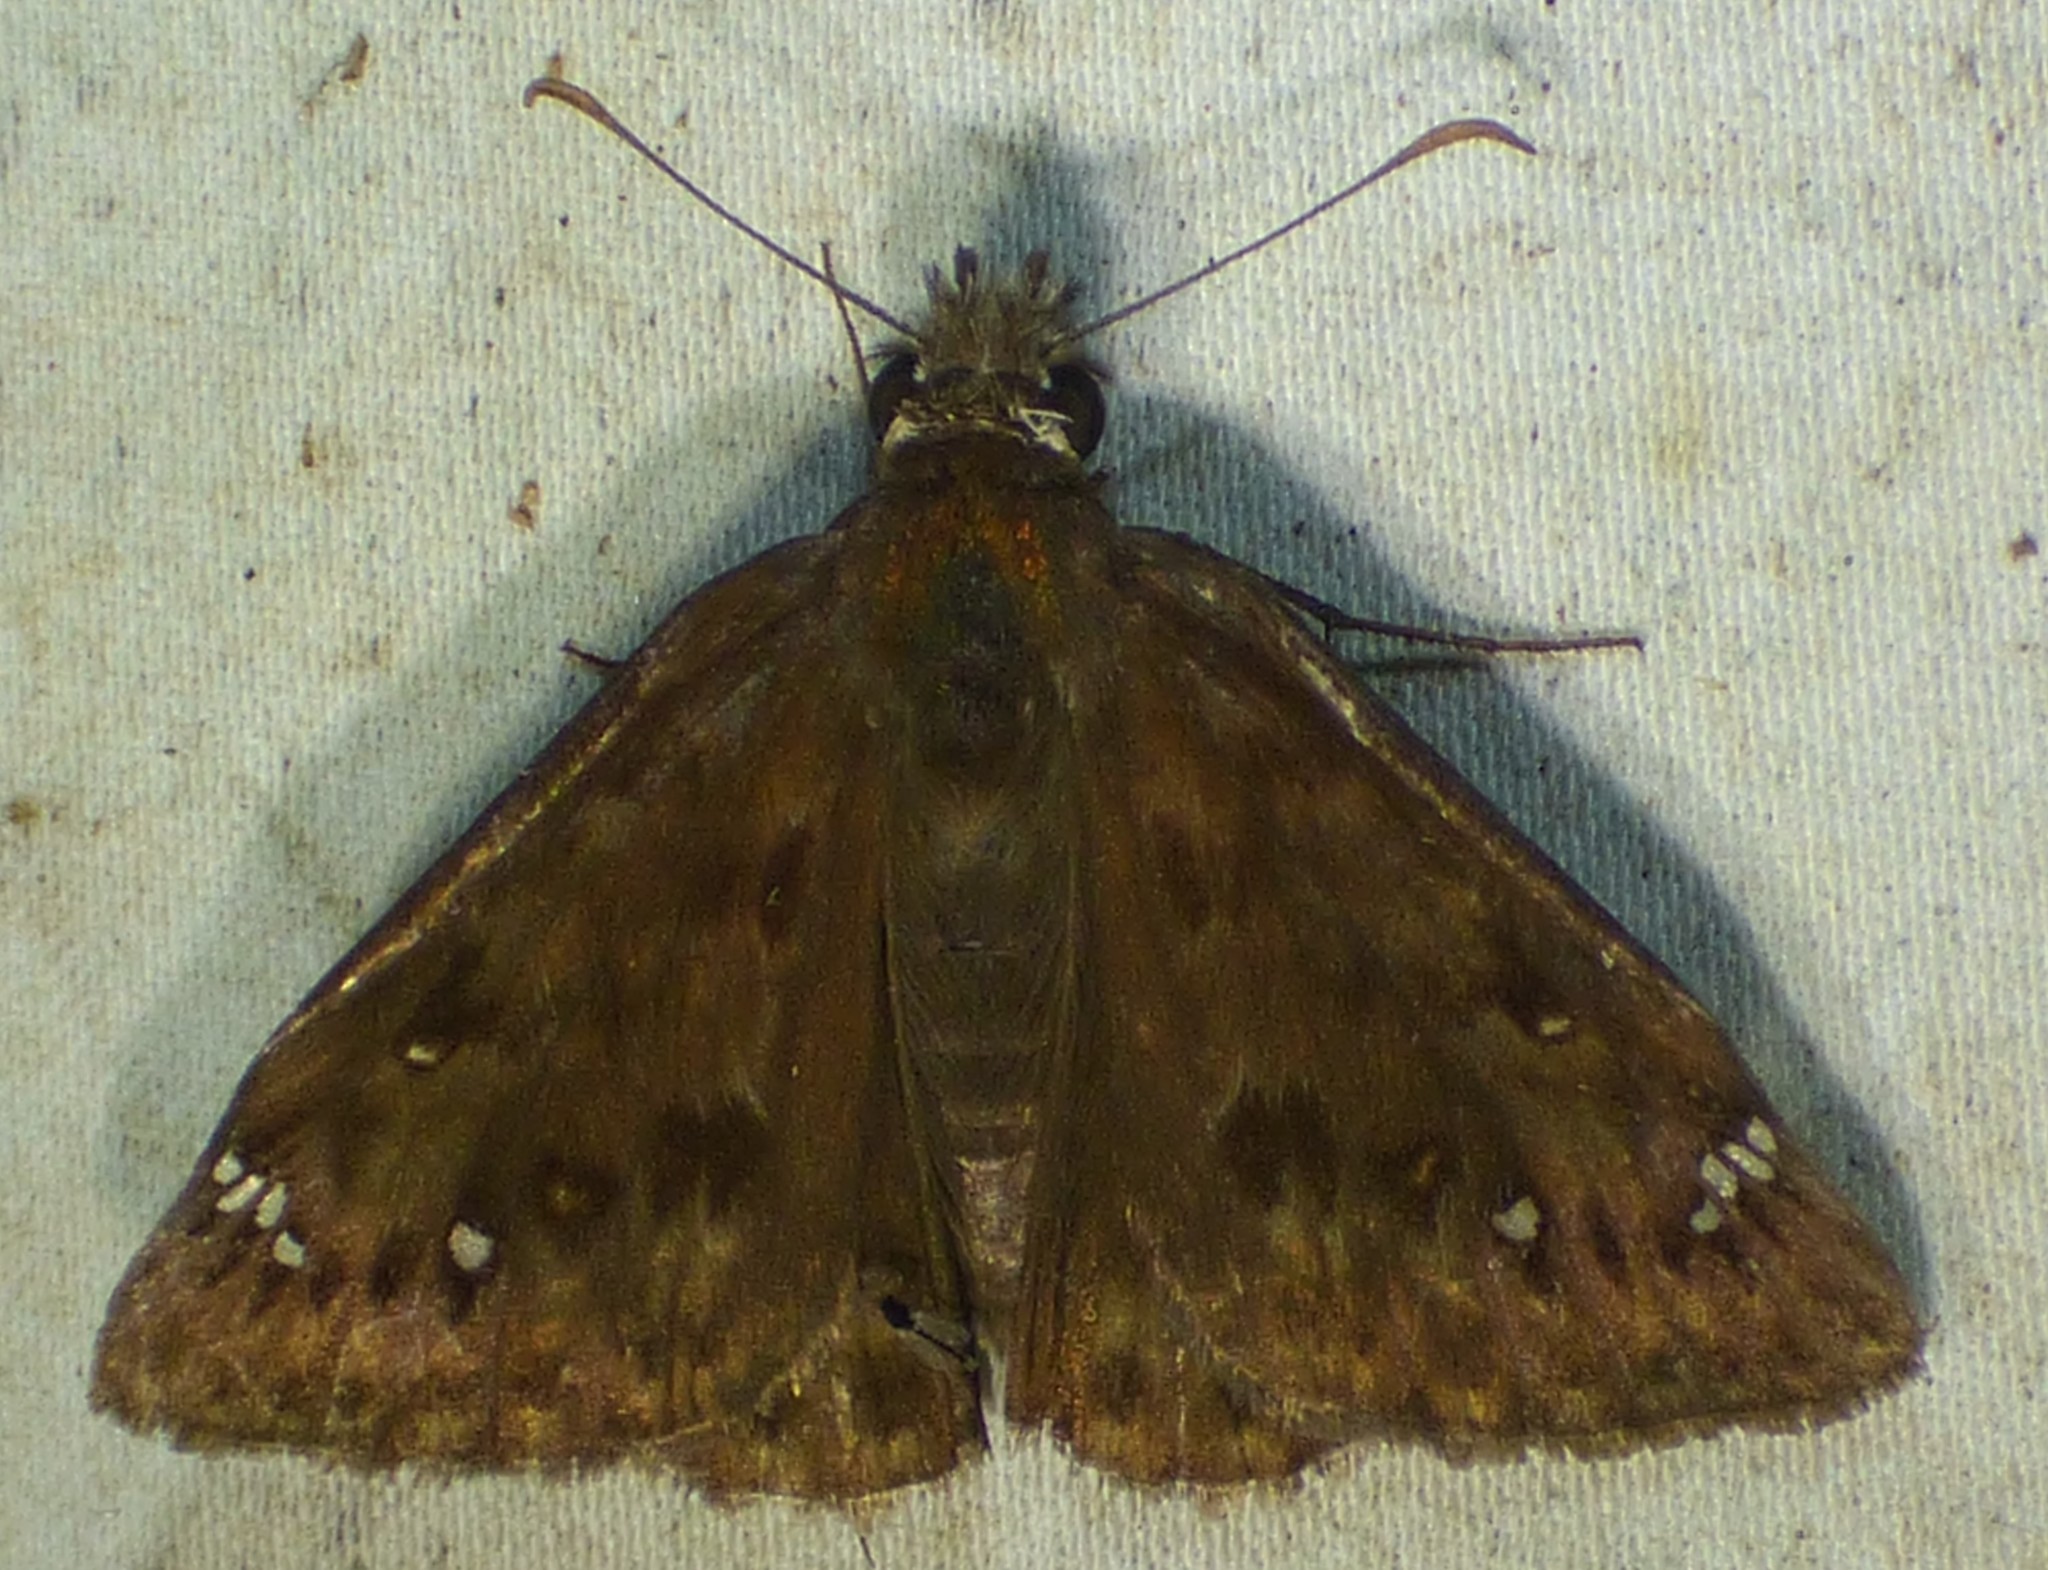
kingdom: Animalia
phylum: Arthropoda
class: Insecta
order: Lepidoptera
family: Hesperiidae
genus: Erynnis
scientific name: Erynnis horatius
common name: Horace's duskywing
